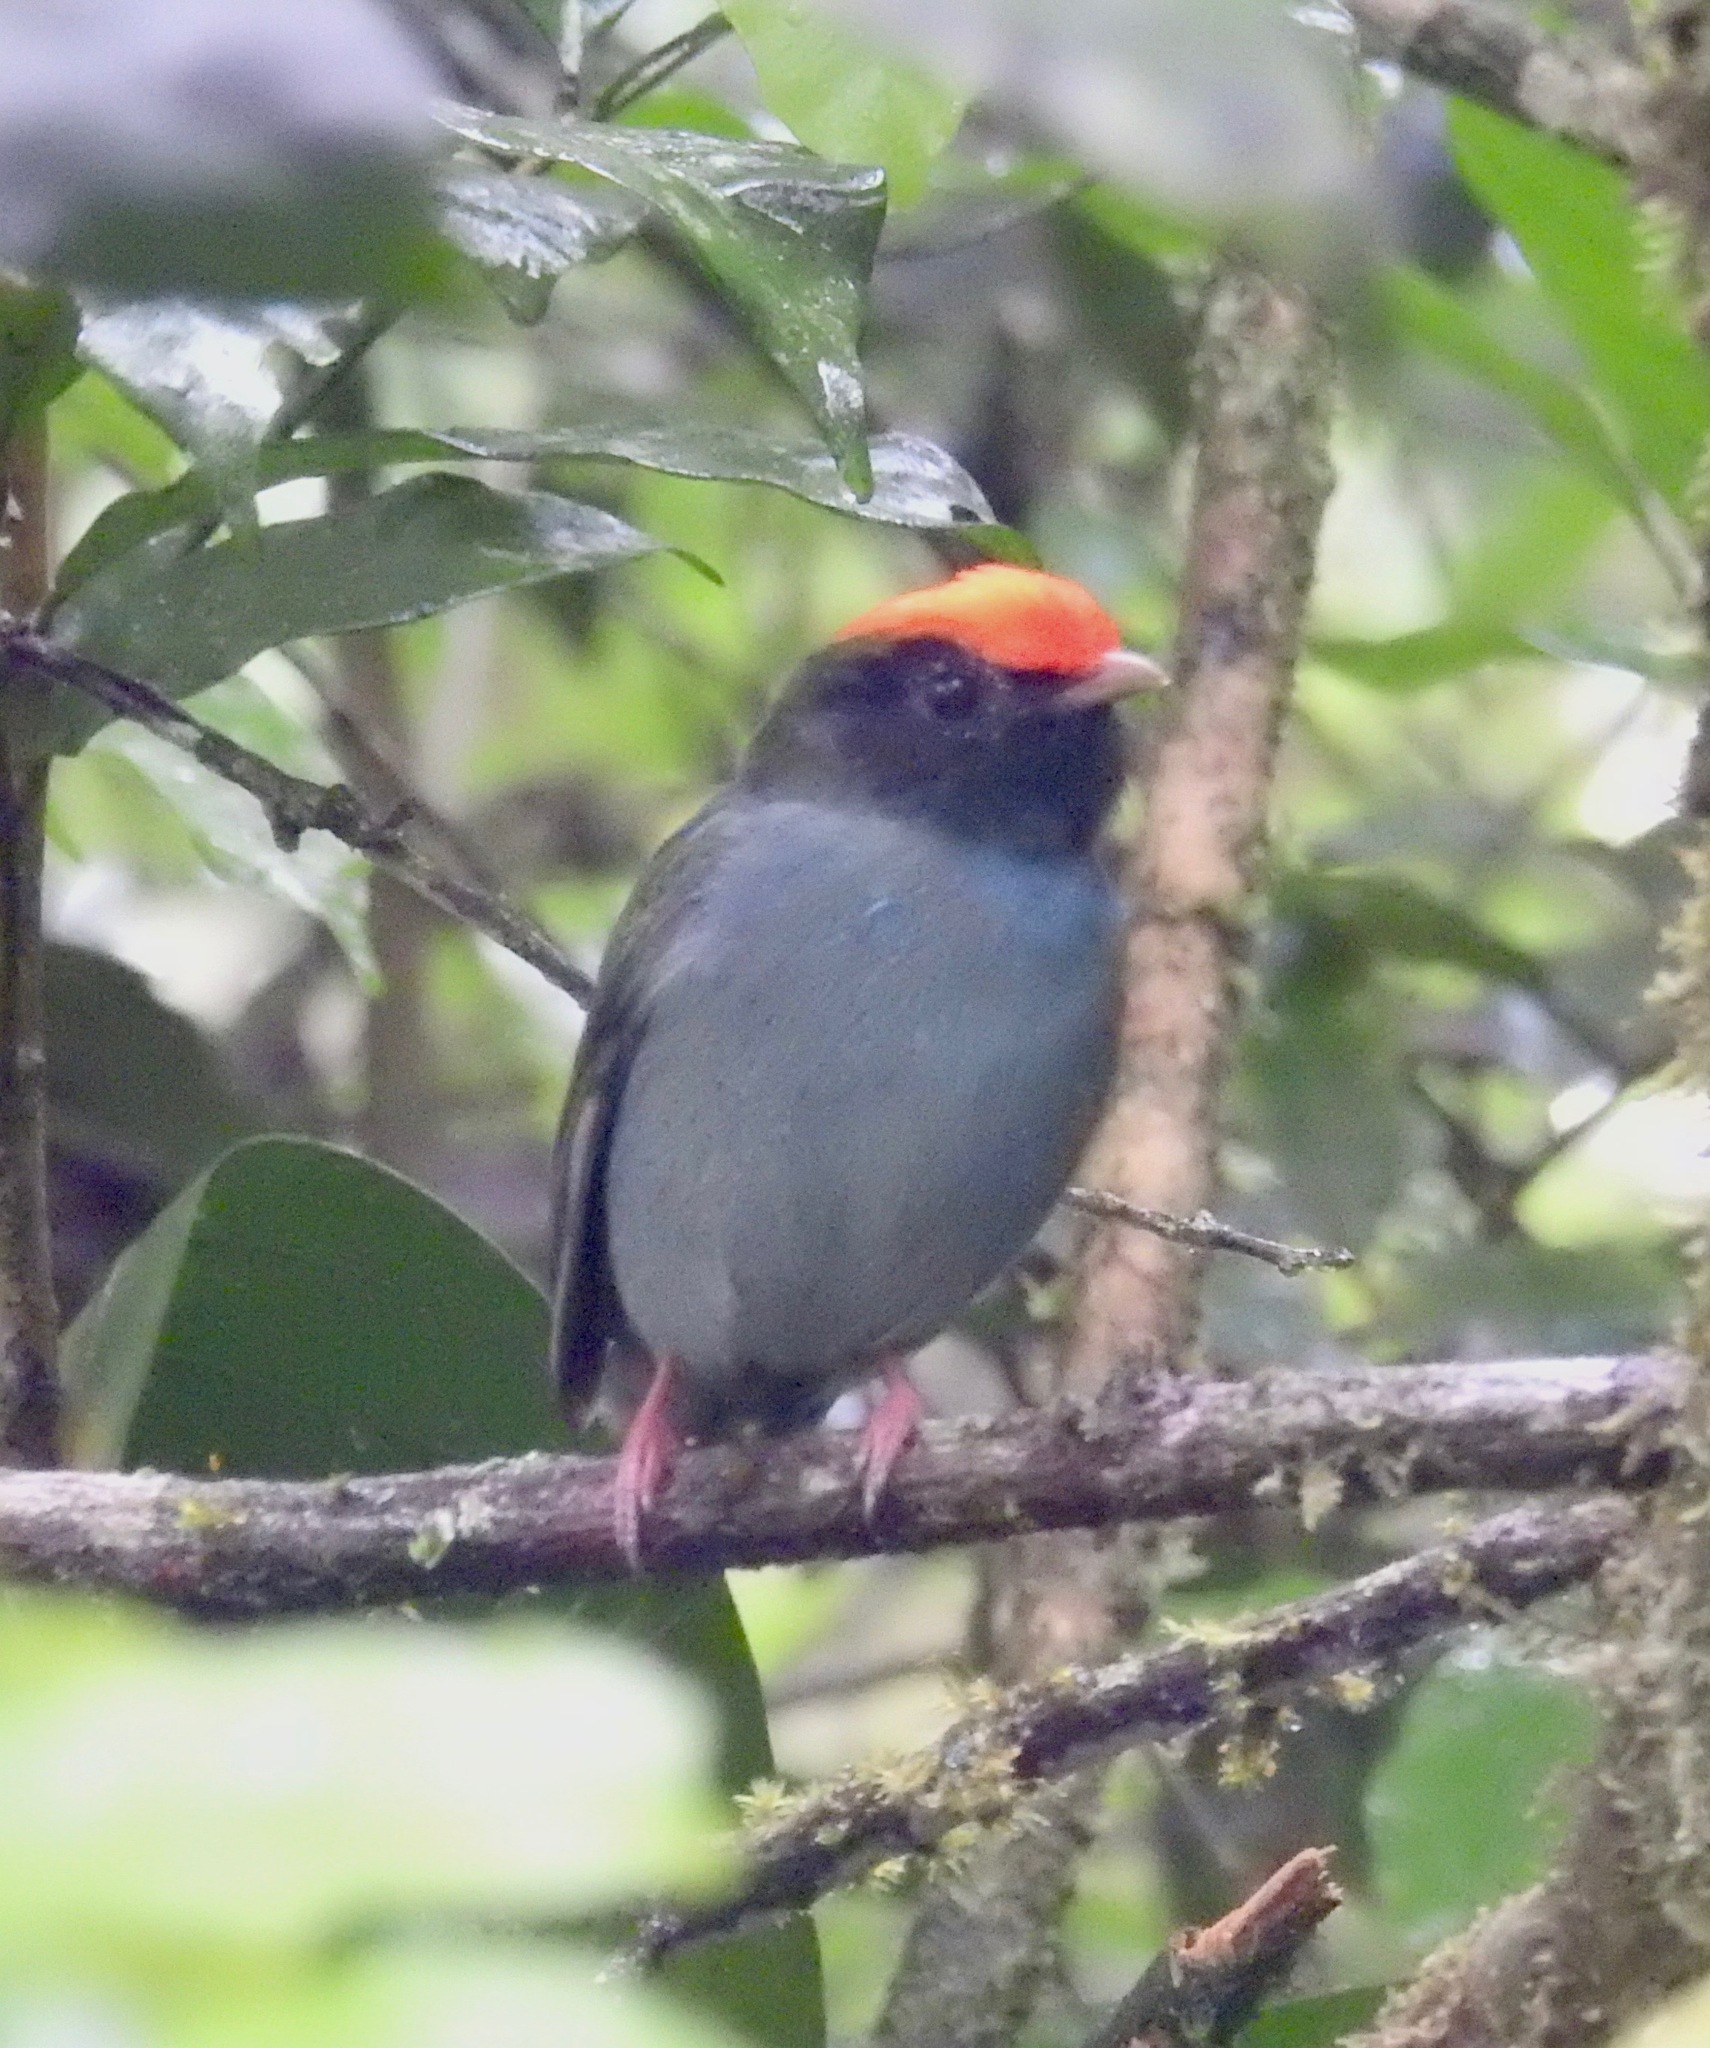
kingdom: Animalia
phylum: Chordata
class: Aves
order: Passeriformes
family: Pipridae
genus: Chiroxiphia
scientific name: Chiroxiphia caudata
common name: Blue manakin
